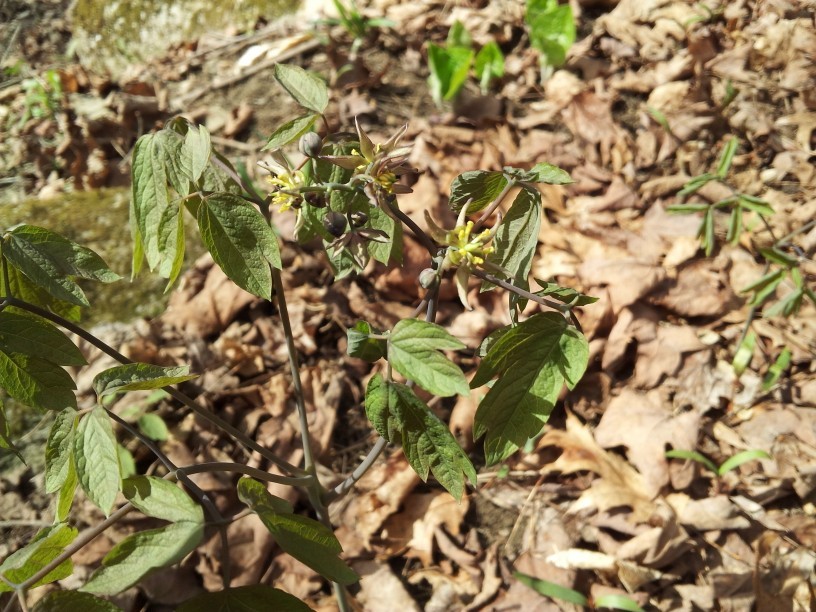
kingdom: Plantae
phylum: Tracheophyta
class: Magnoliopsida
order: Ranunculales
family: Berberidaceae
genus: Caulophyllum
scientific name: Caulophyllum thalictroides
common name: Blue cohosh
